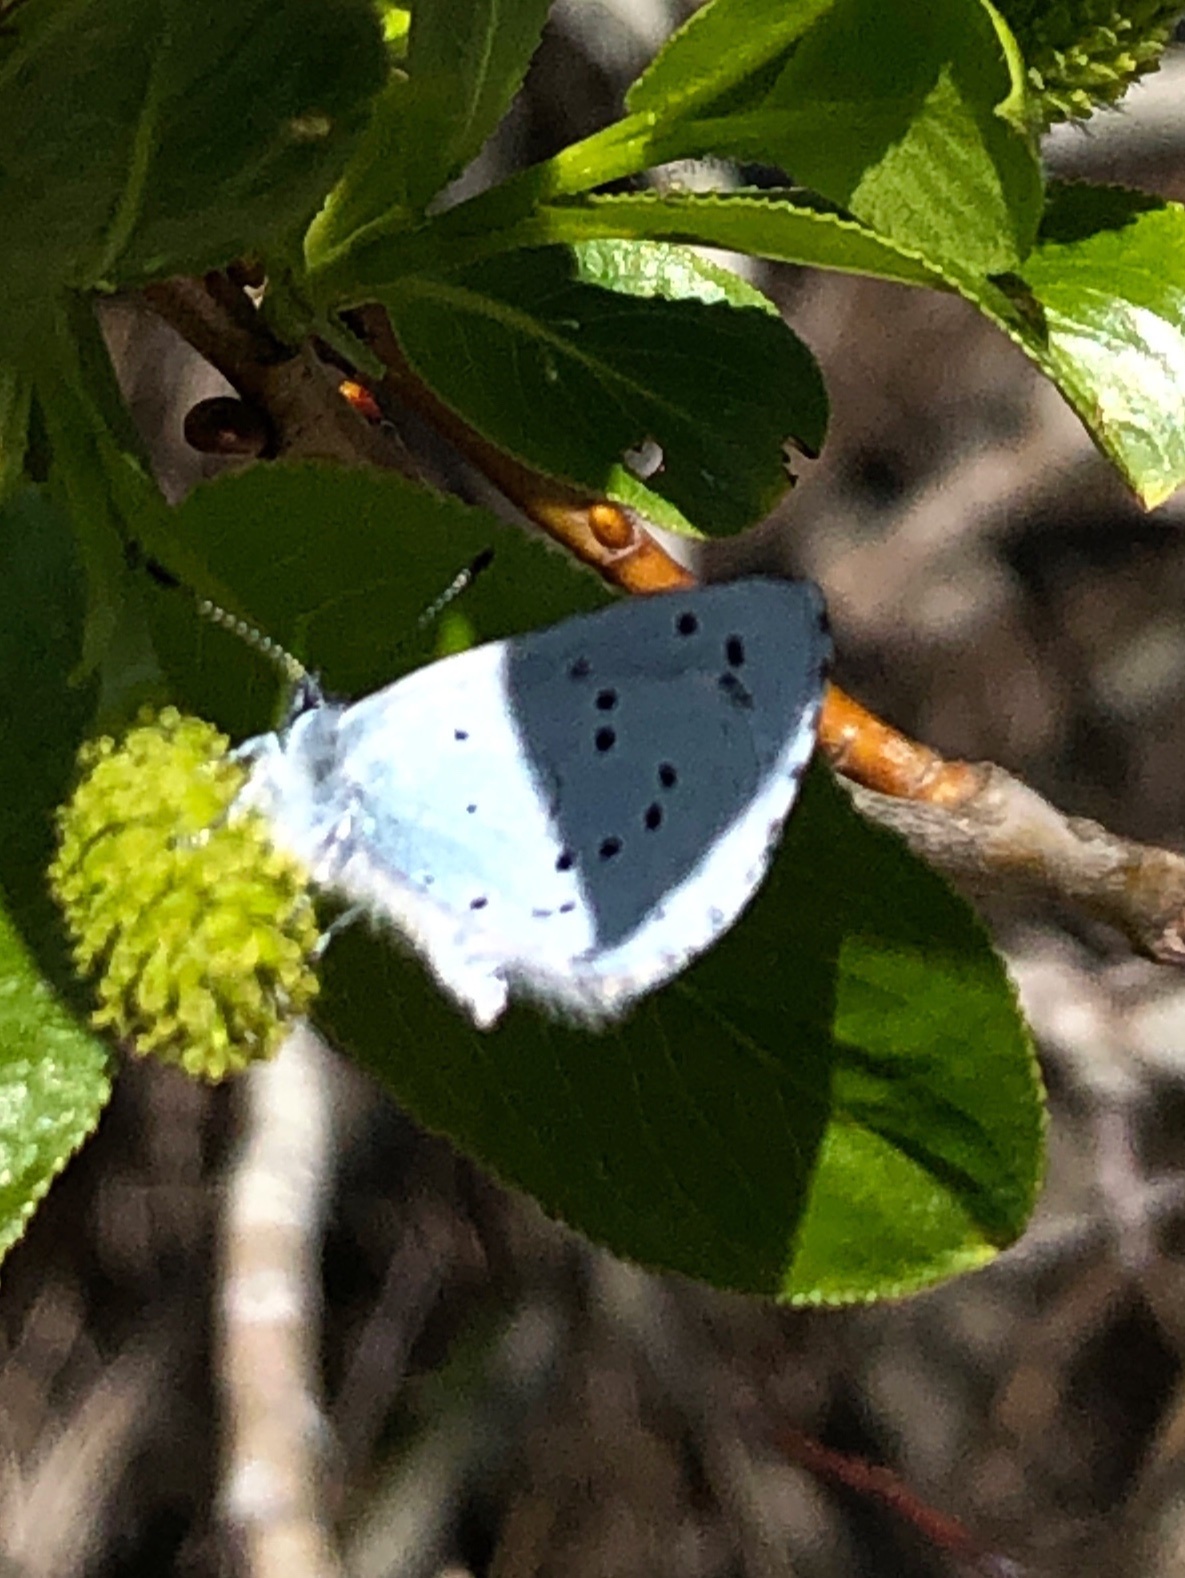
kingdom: Animalia
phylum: Arthropoda
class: Insecta
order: Lepidoptera
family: Lycaenidae
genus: Celastrina
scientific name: Celastrina argiolus
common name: Holly blue
